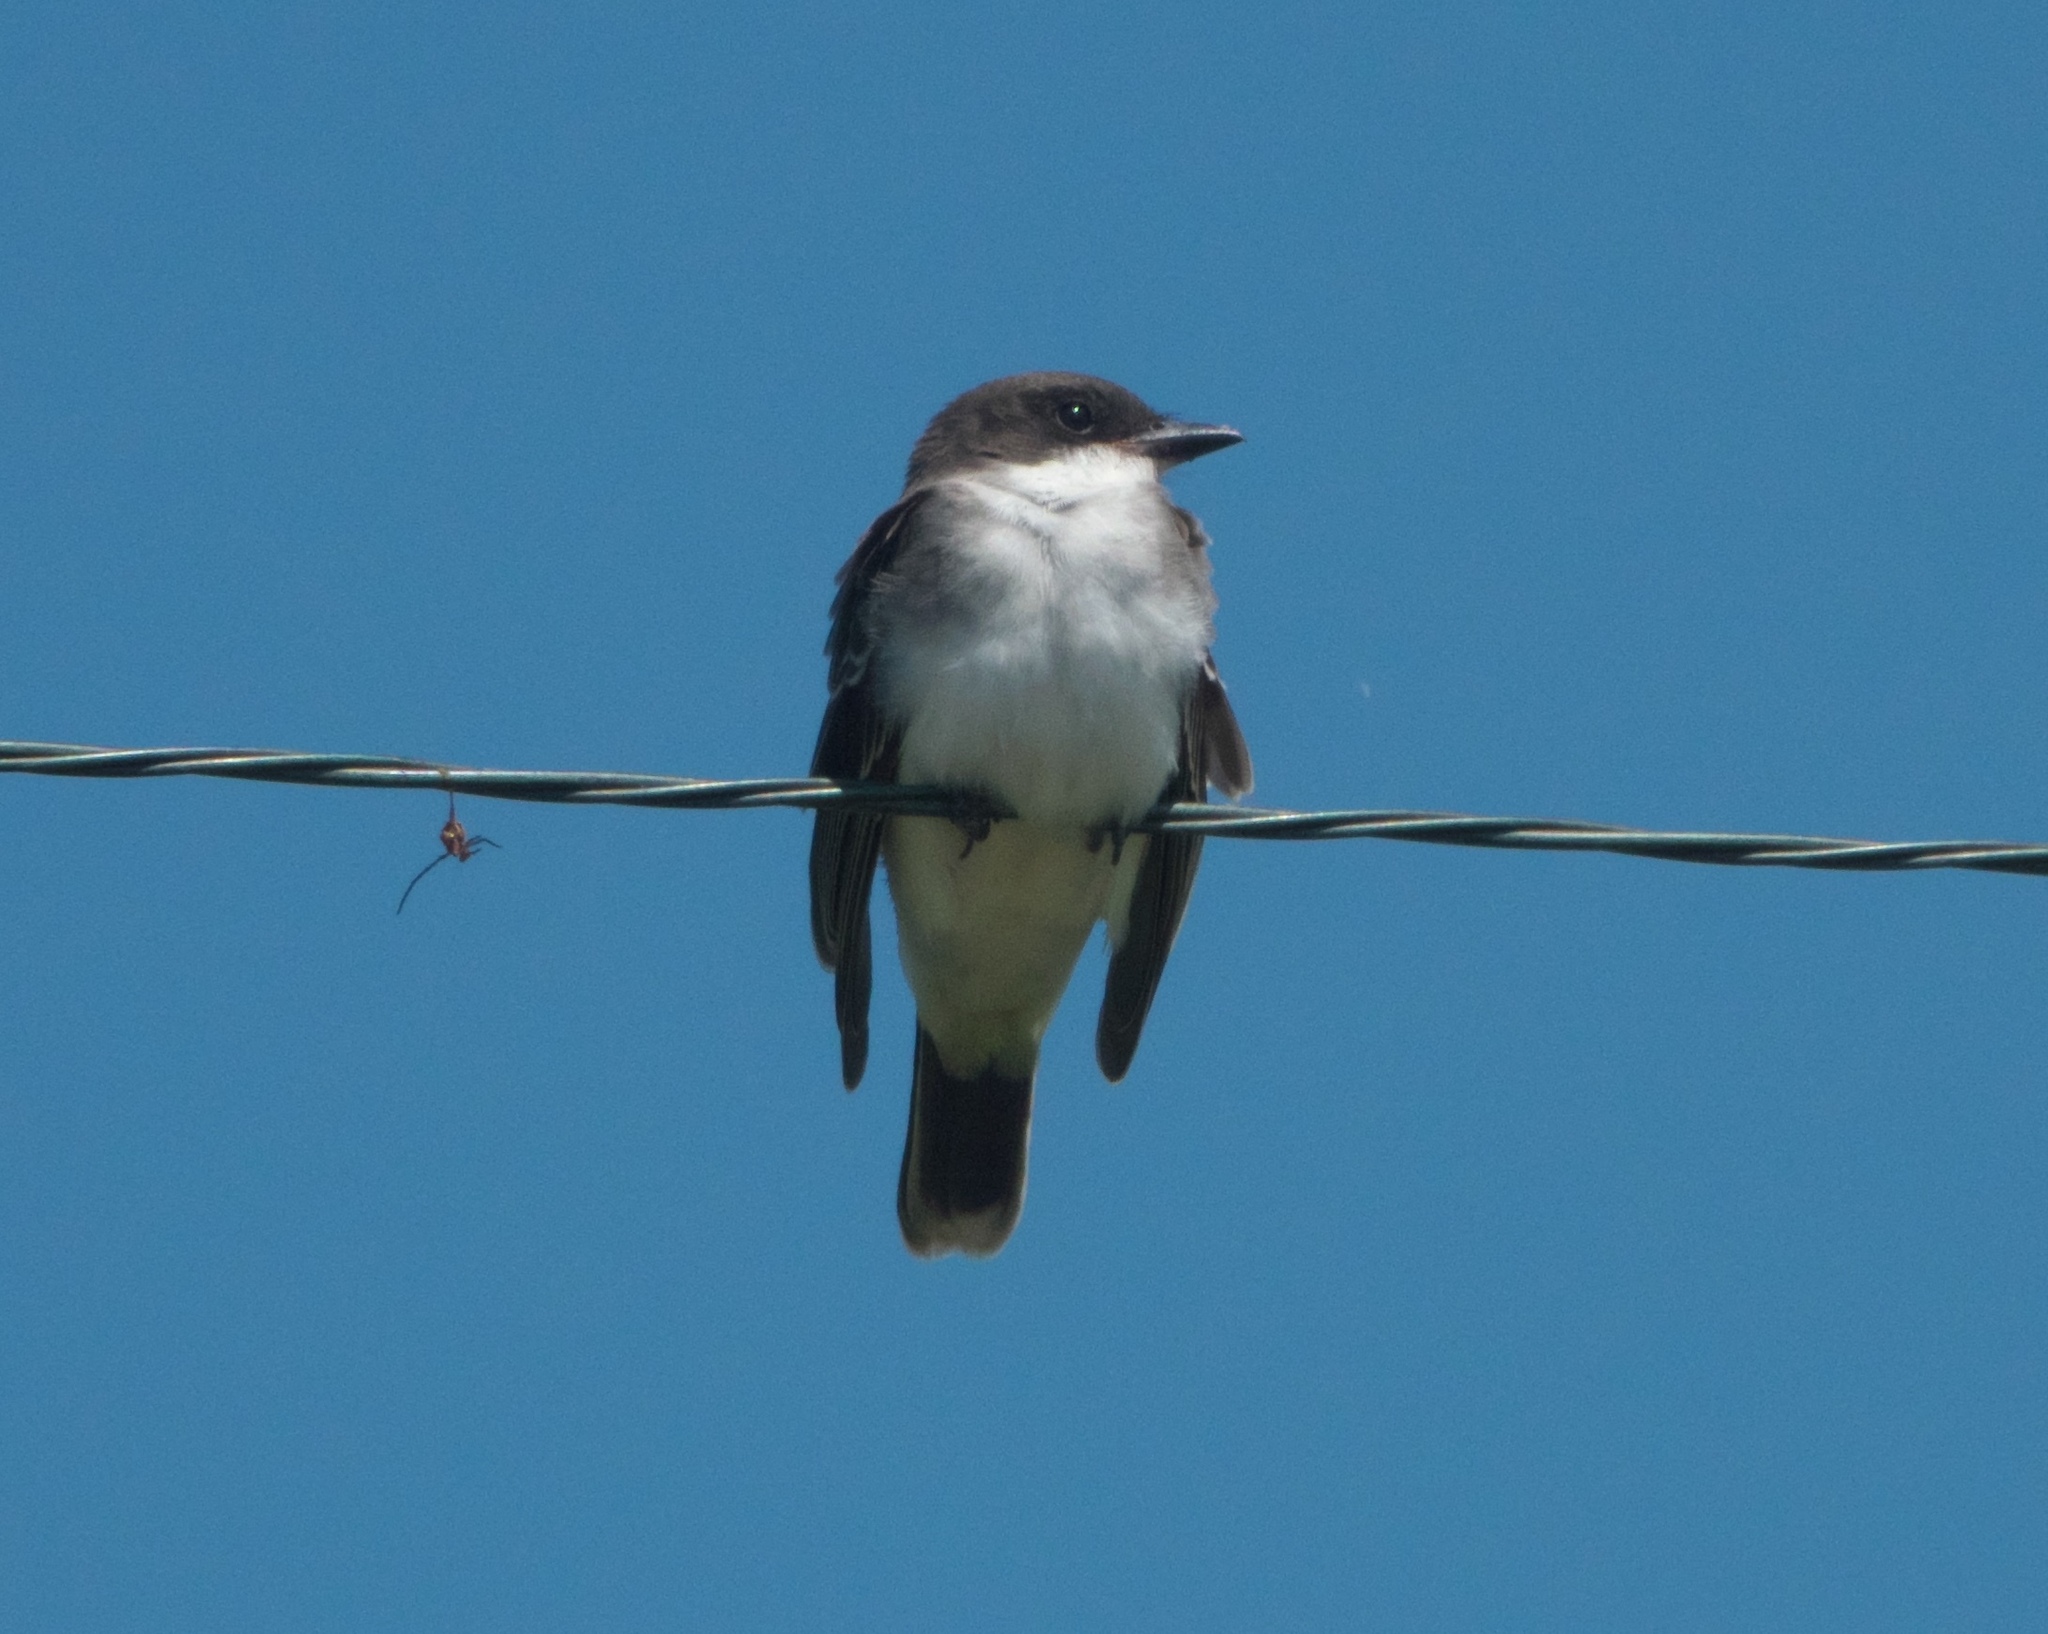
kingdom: Animalia
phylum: Chordata
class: Aves
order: Passeriformes
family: Tyrannidae
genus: Tyrannus
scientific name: Tyrannus tyrannus
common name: Eastern kingbird
